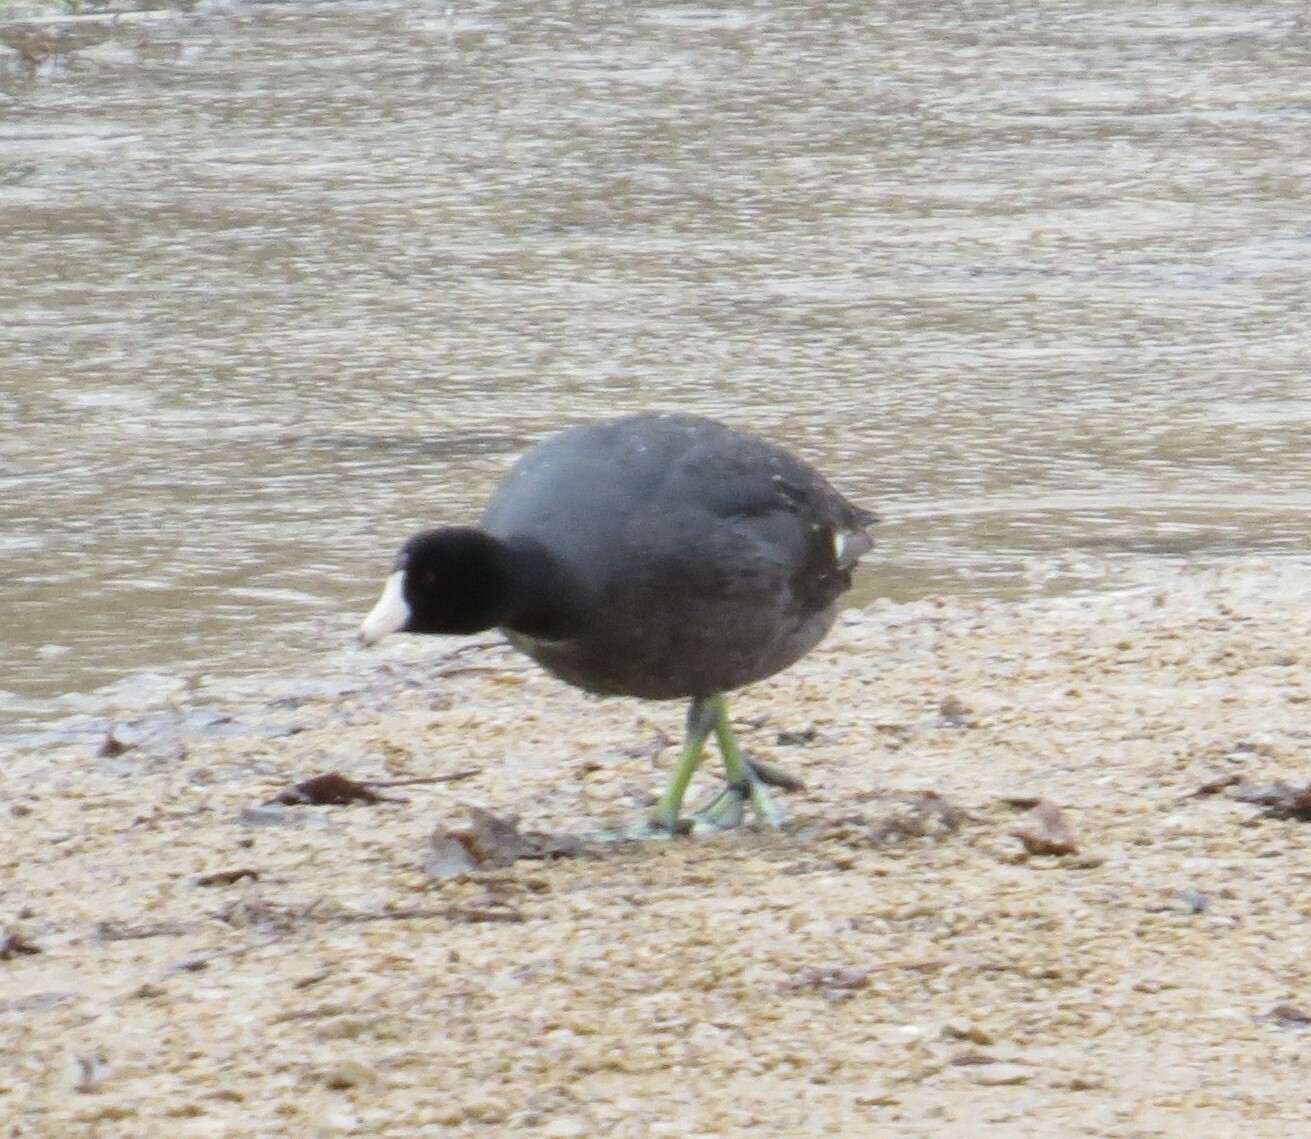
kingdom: Animalia
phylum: Chordata
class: Aves
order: Gruiformes
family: Rallidae
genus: Fulica
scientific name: Fulica americana
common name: American coot
